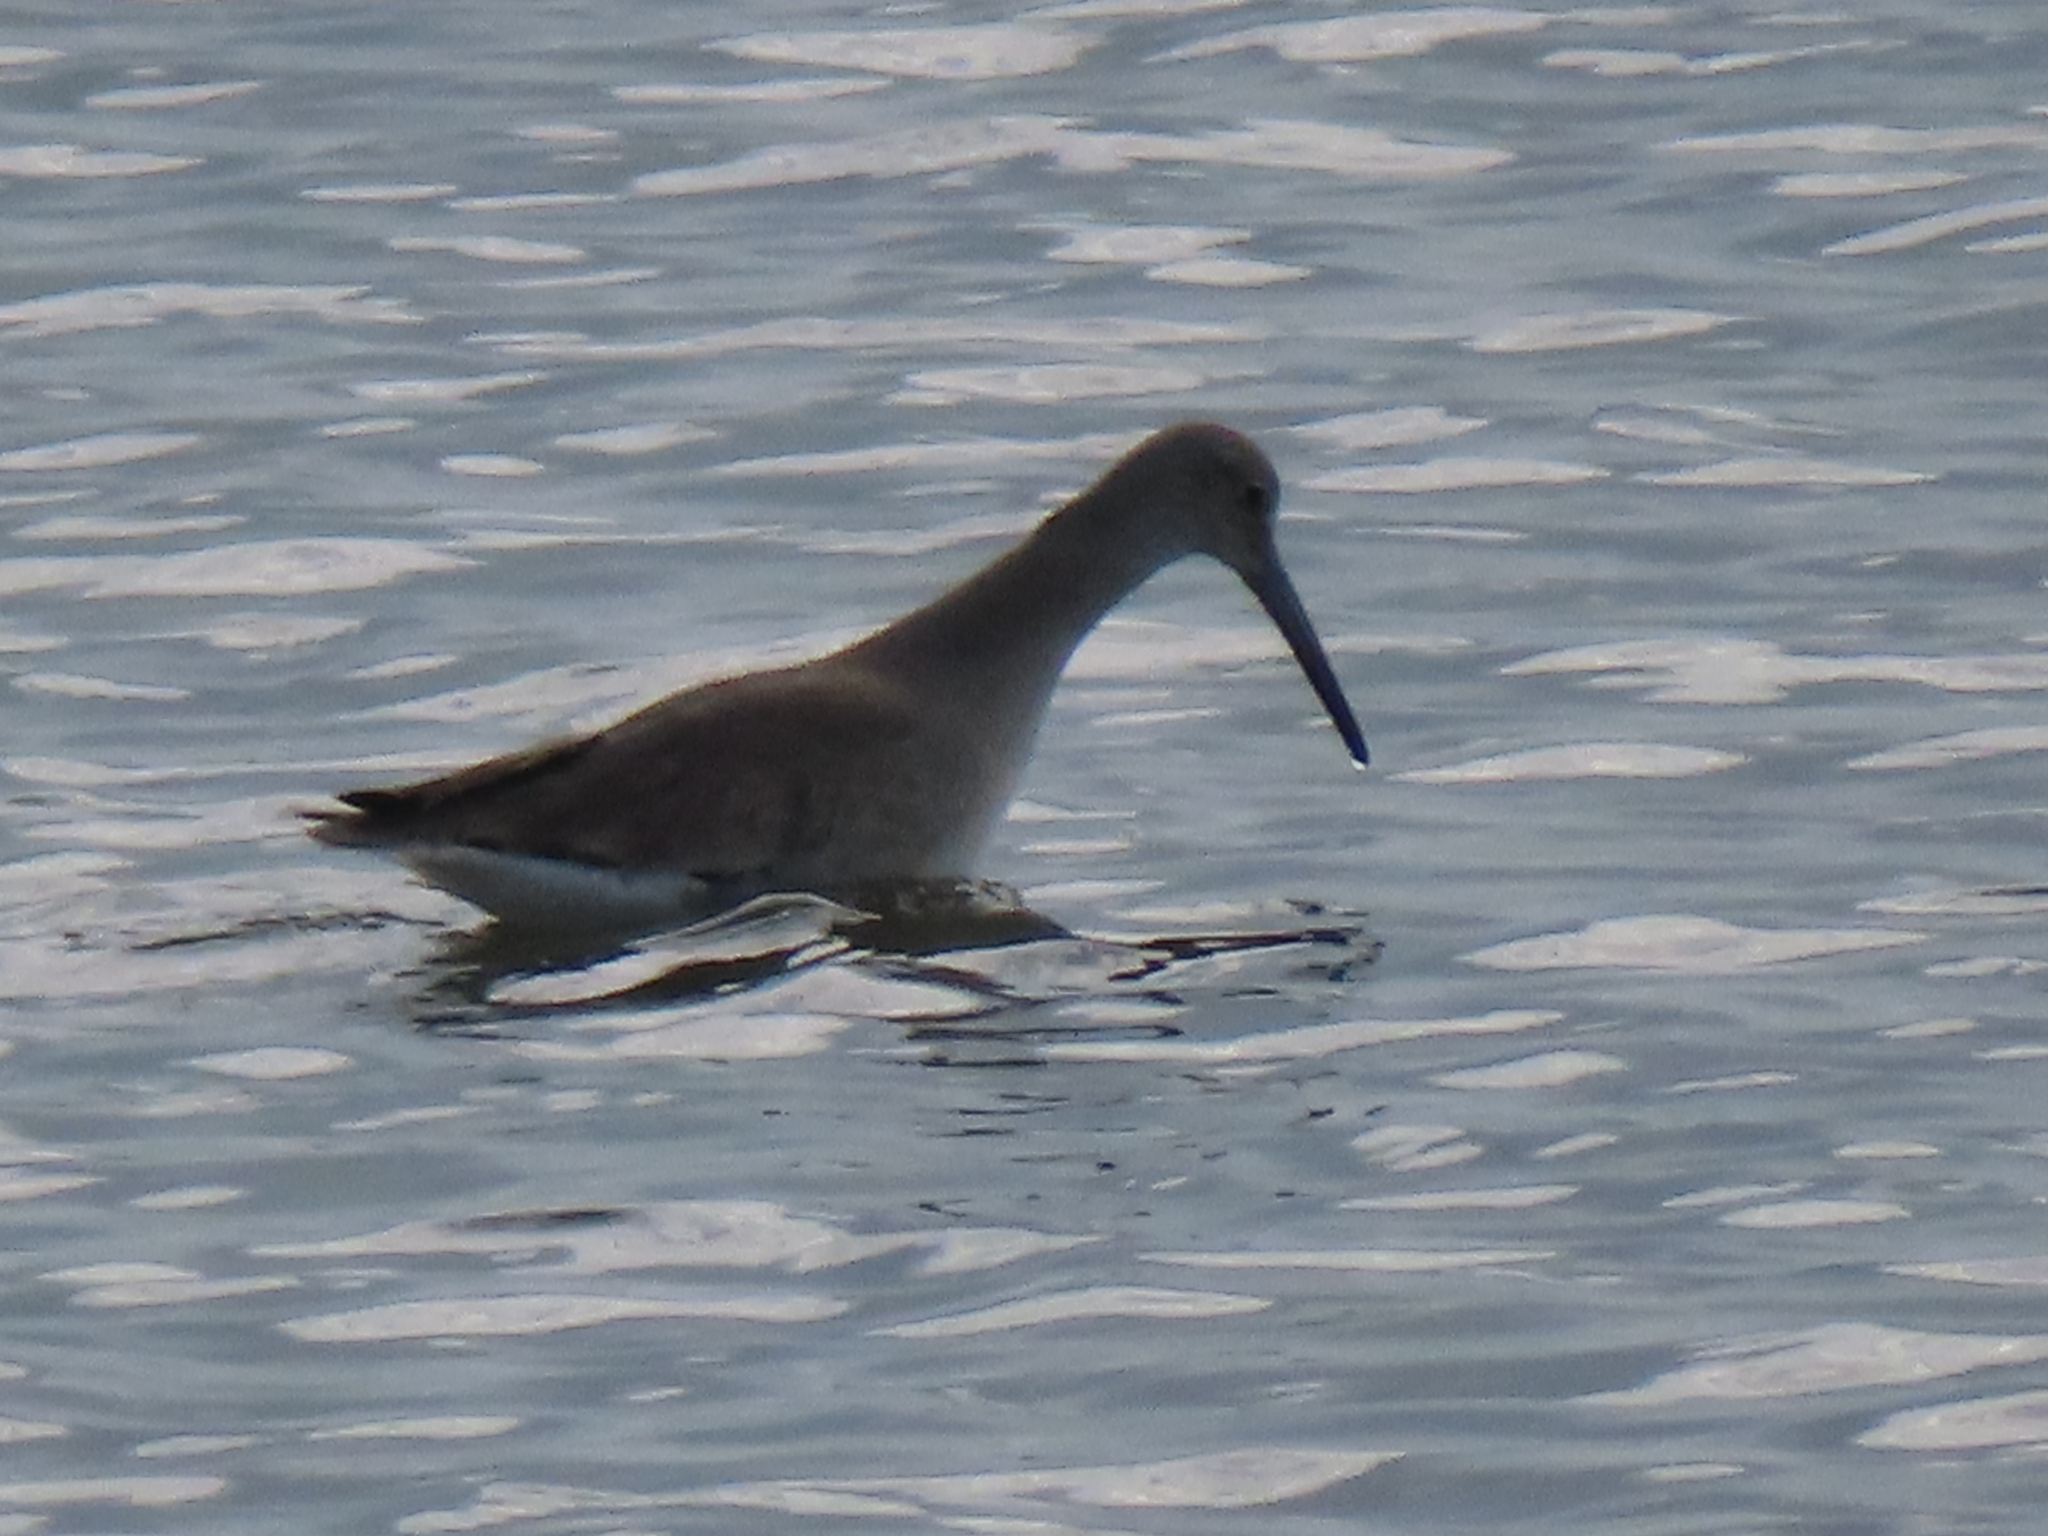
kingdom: Animalia
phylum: Chordata
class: Aves
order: Charadriiformes
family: Scolopacidae
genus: Tringa
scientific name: Tringa semipalmata
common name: Willet
